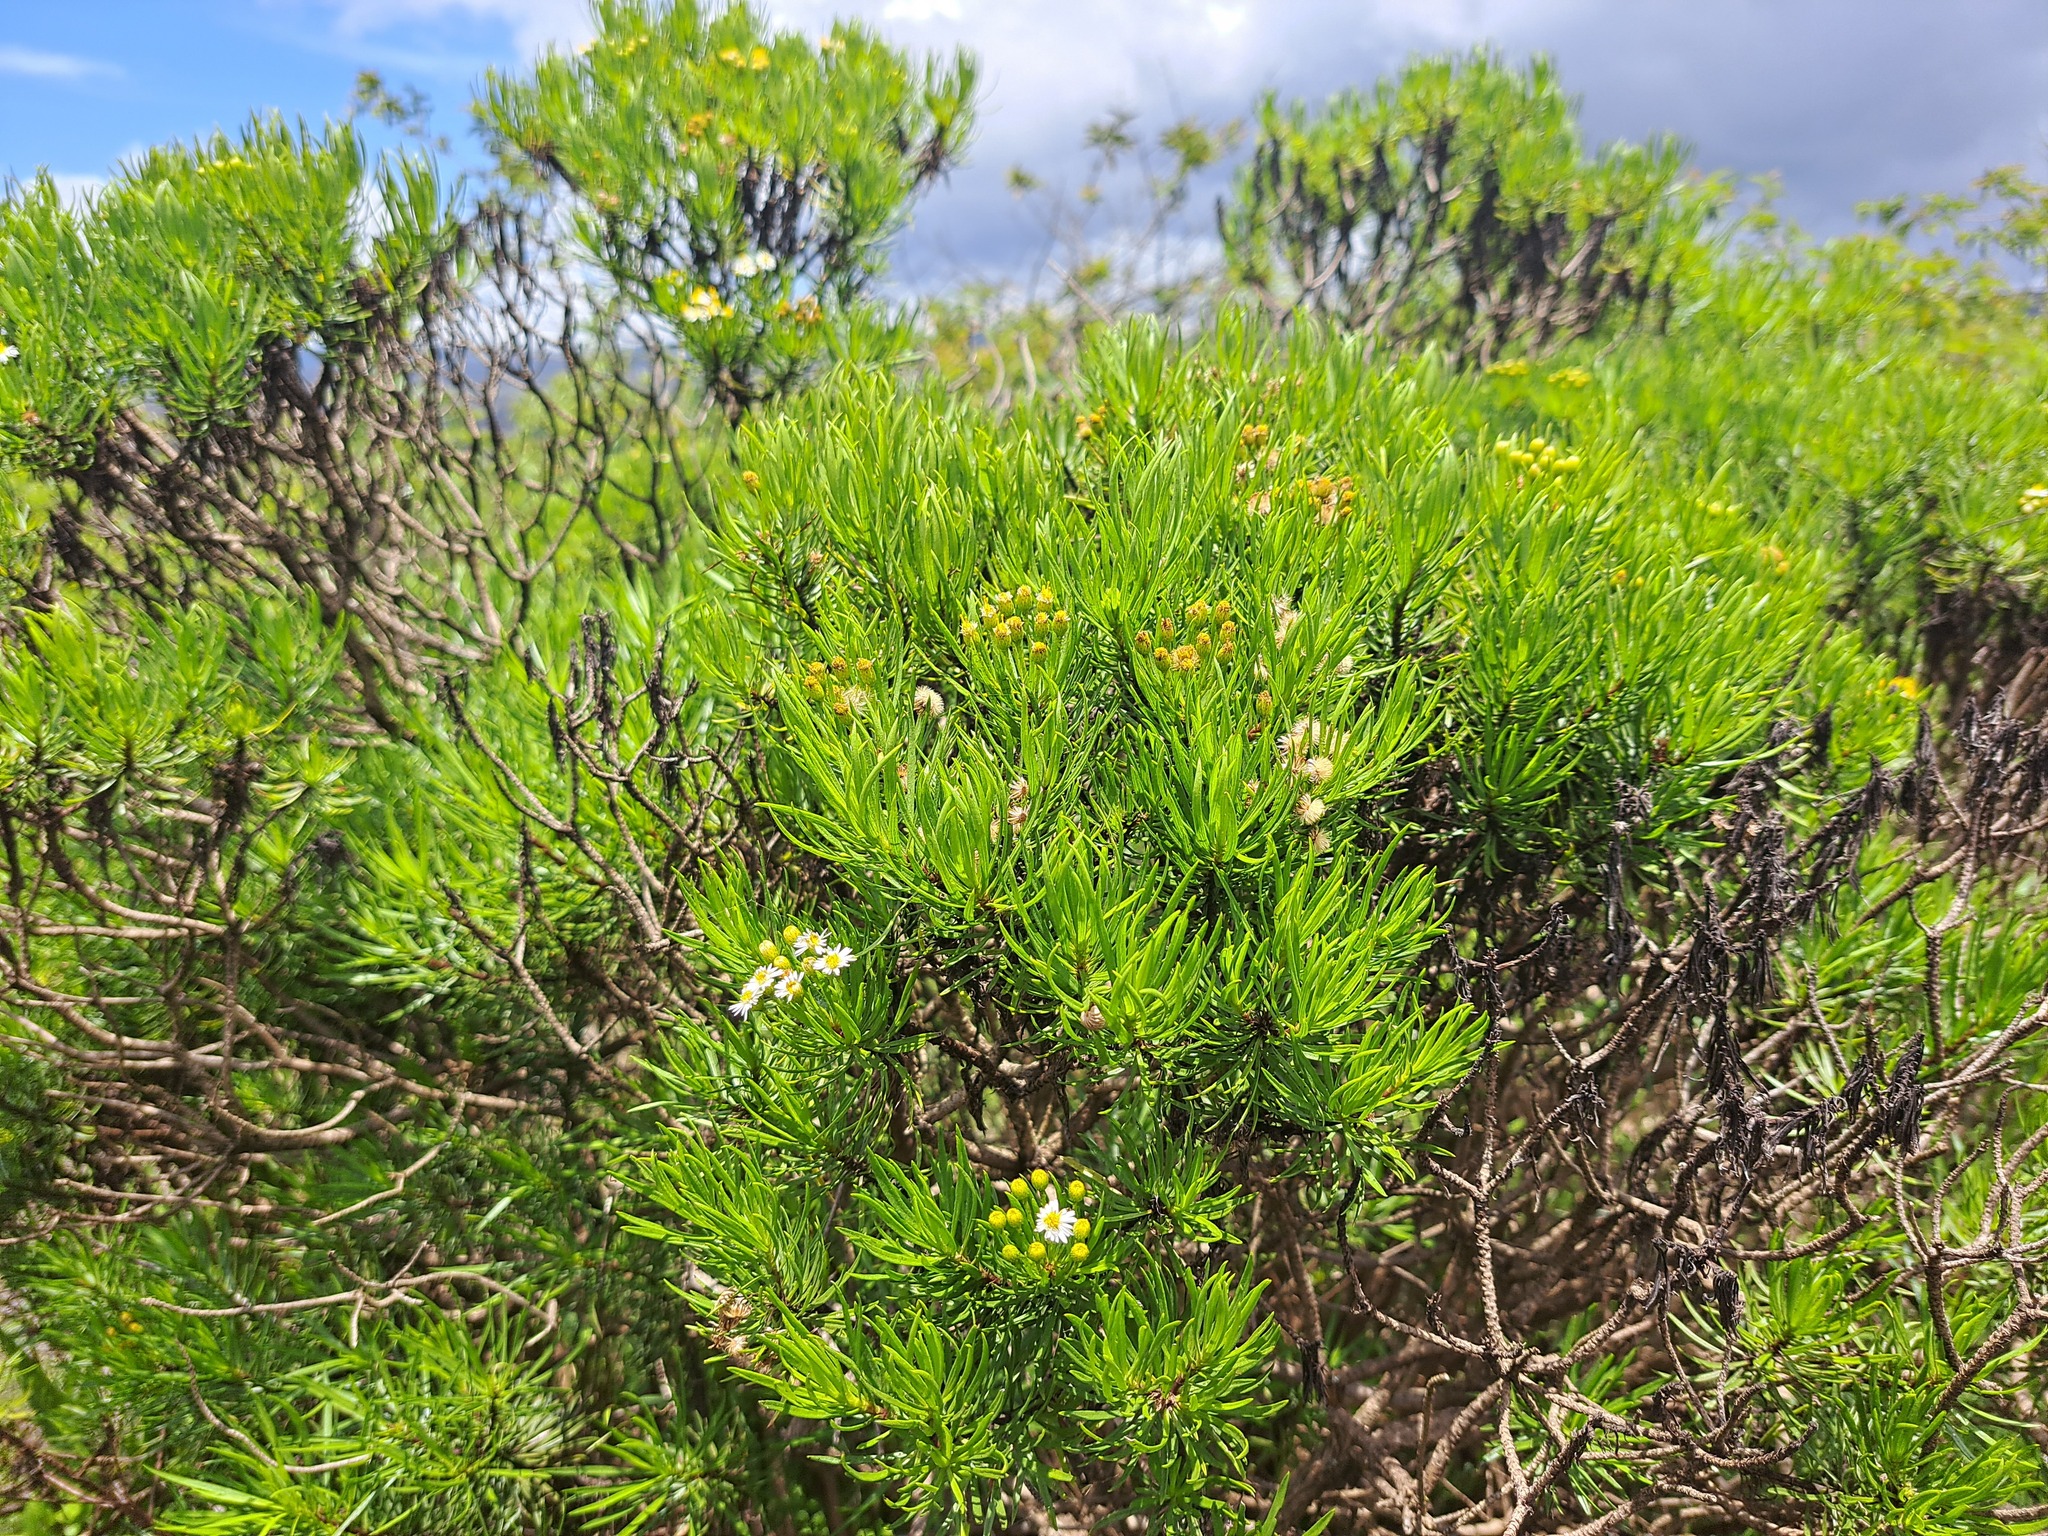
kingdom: Plantae
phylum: Tracheophyta
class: Magnoliopsida
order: Asterales
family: Asteraceae
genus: Erigeron
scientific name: Erigeron tenuifolius
